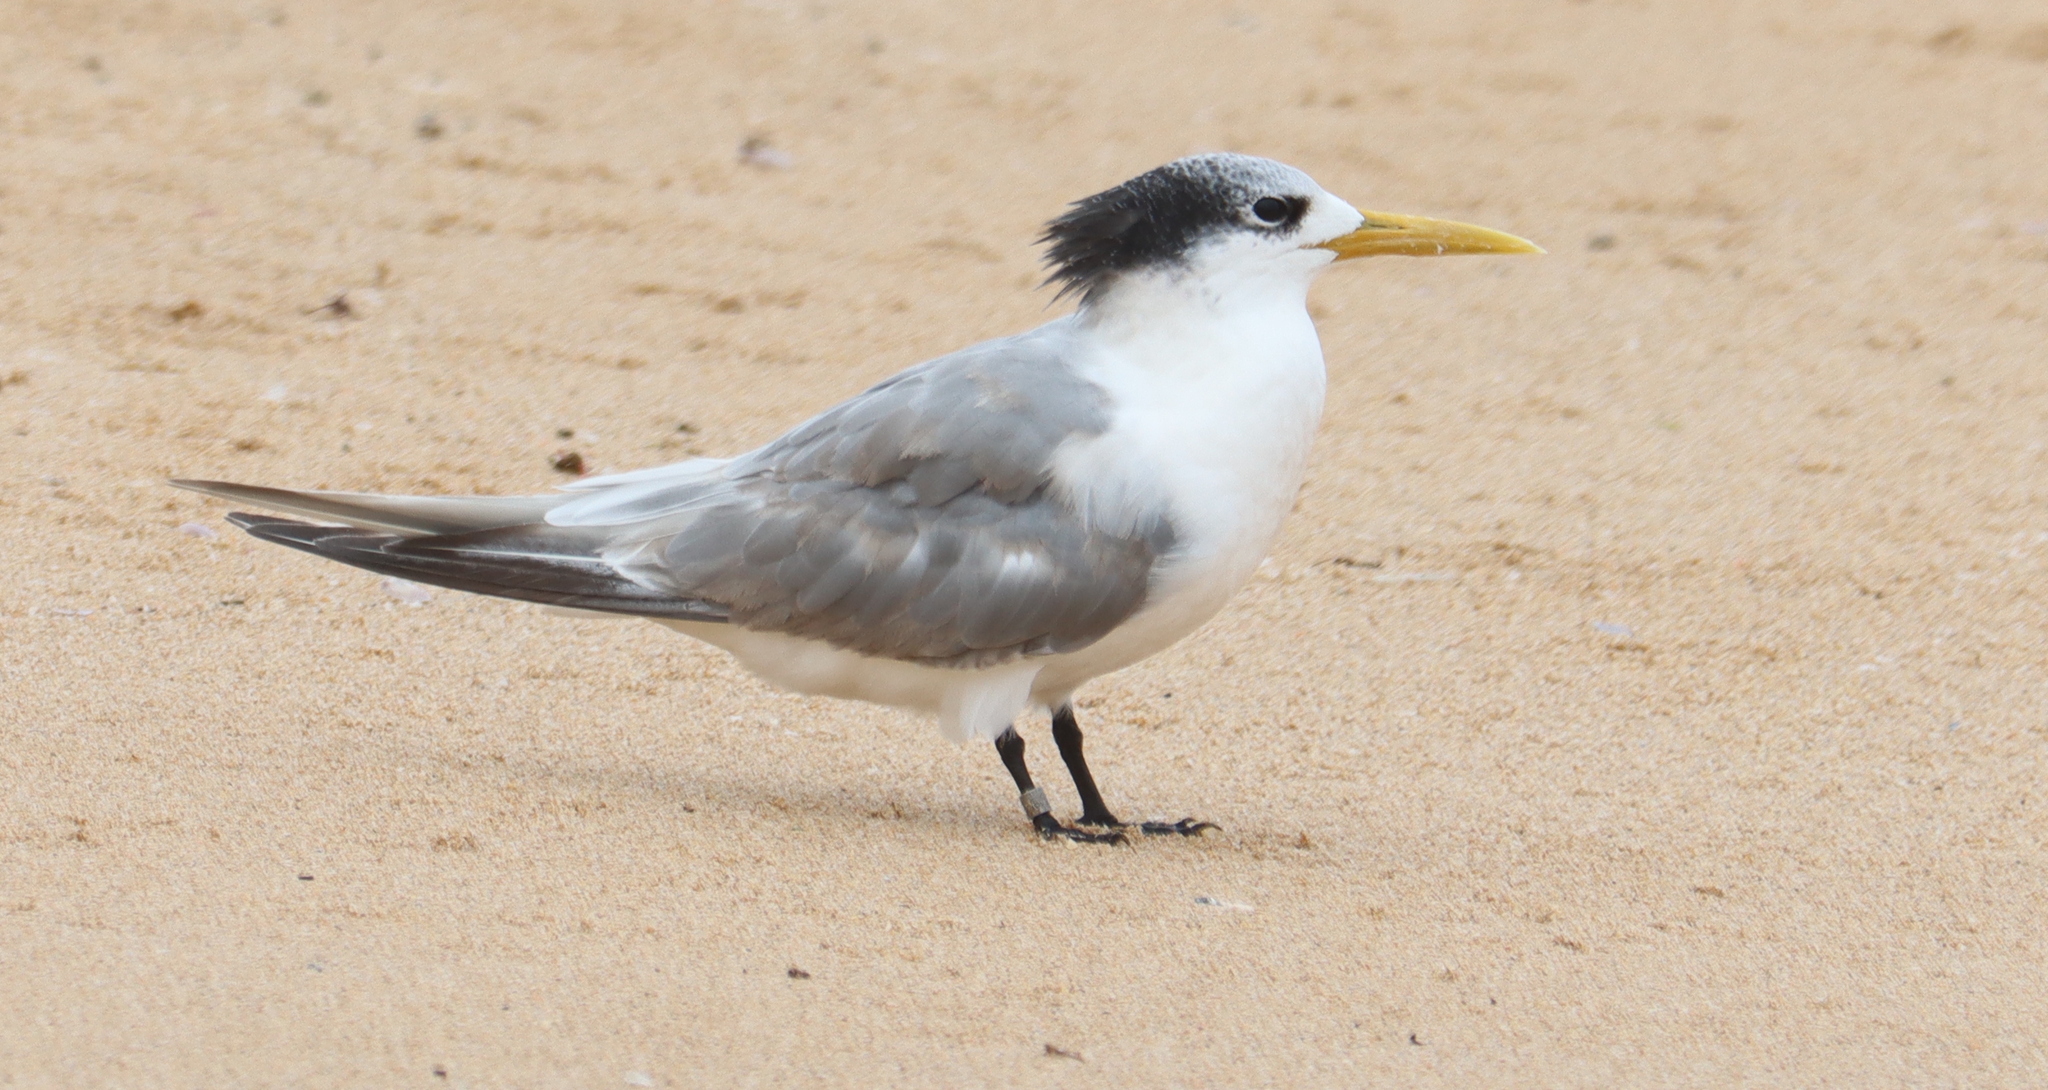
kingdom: Animalia
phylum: Chordata
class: Aves
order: Charadriiformes
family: Laridae
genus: Thalasseus
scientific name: Thalasseus bergii
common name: Greater crested tern
